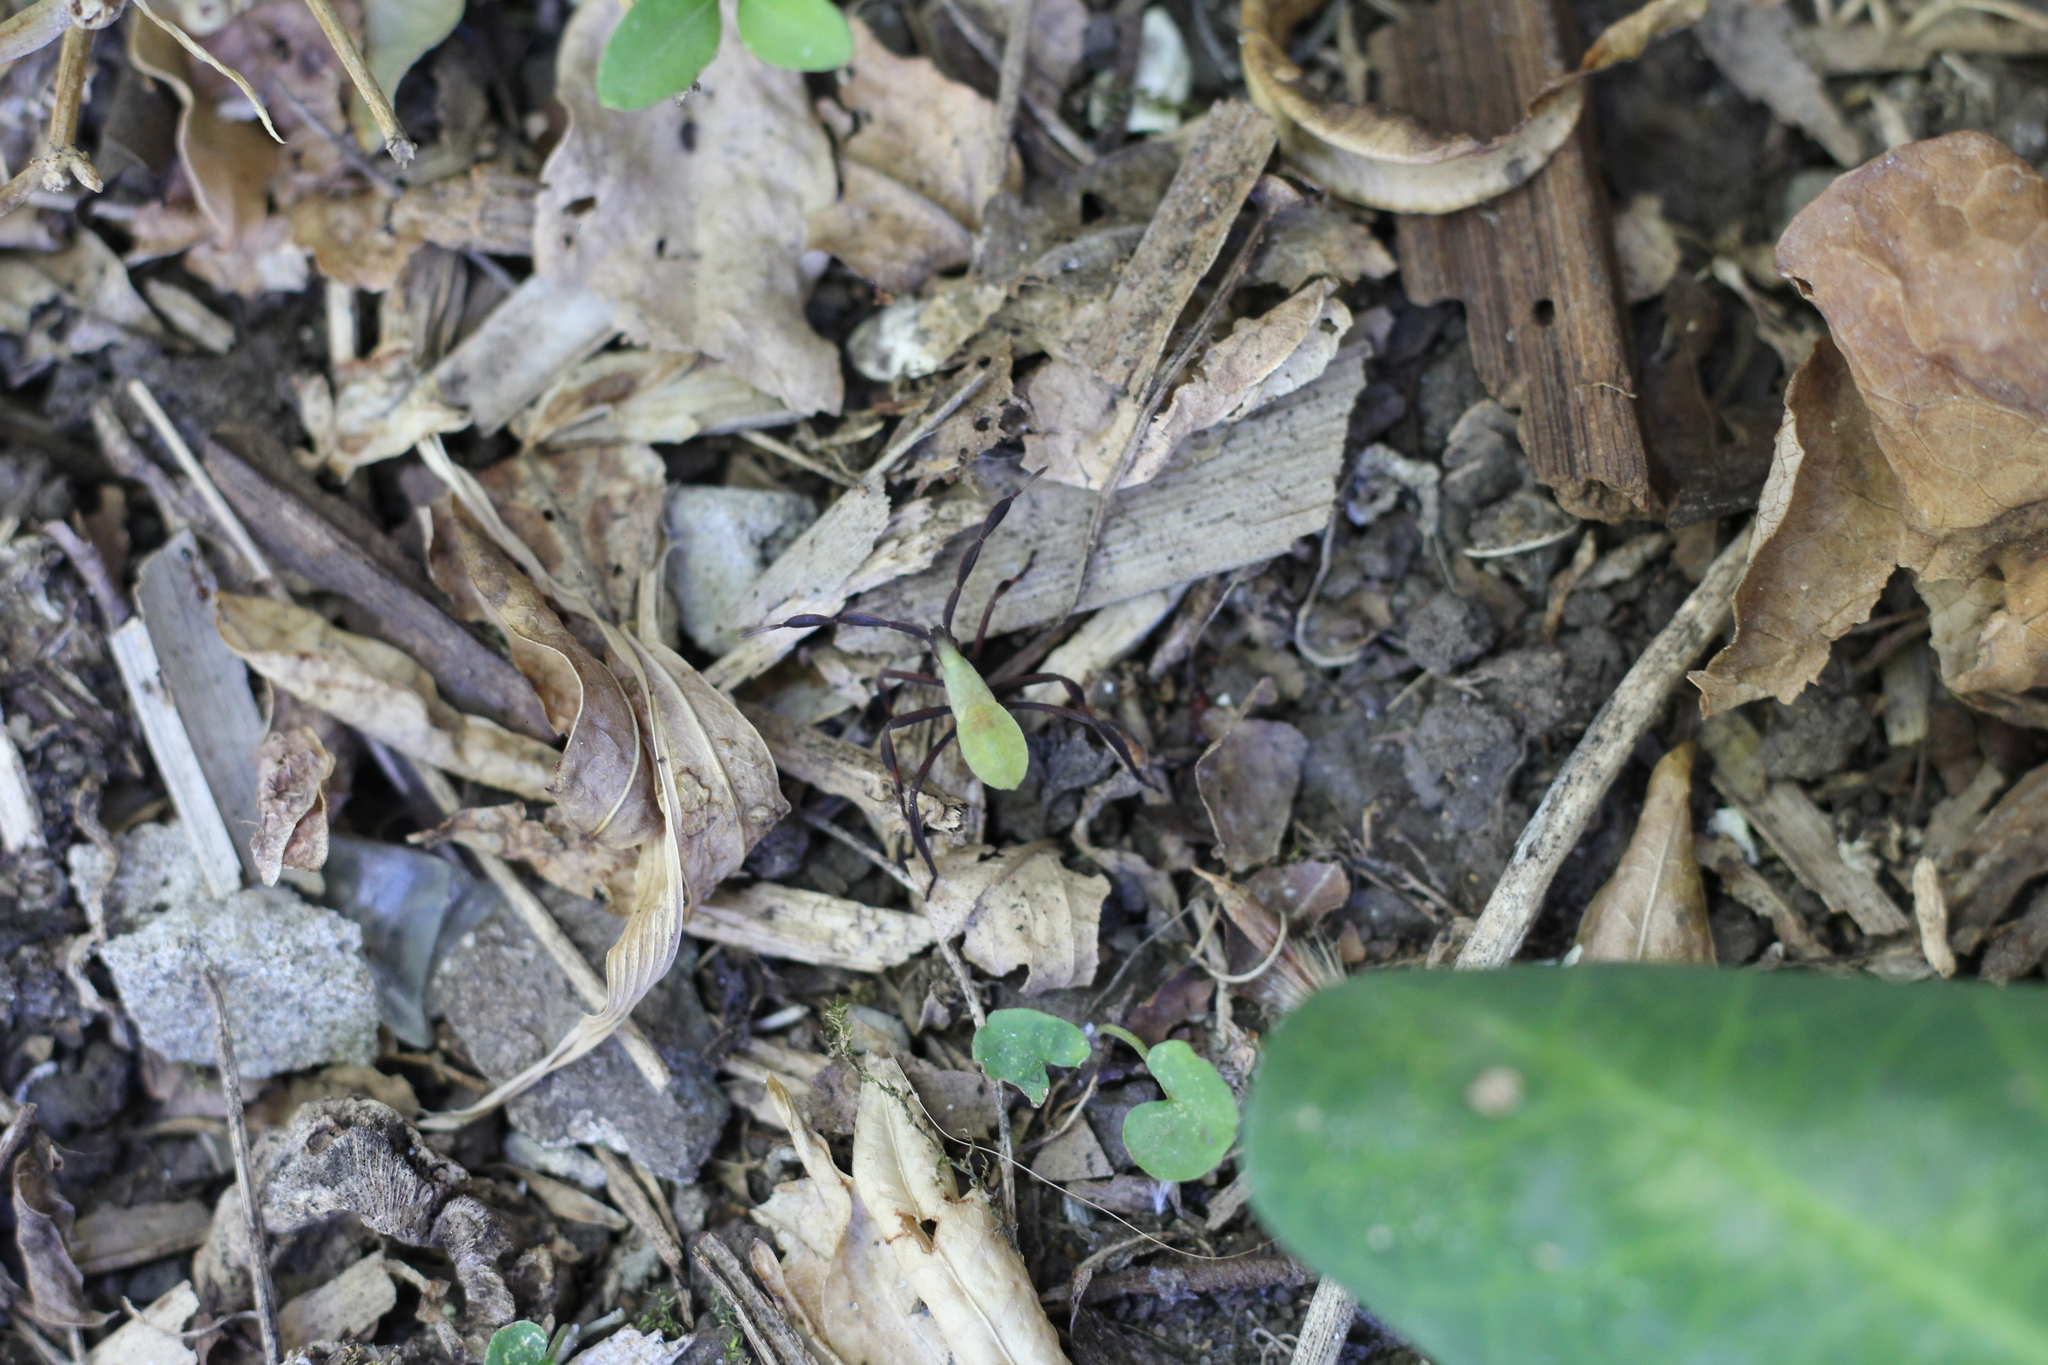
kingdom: Animalia
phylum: Arthropoda
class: Insecta
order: Hemiptera
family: Coreidae
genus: Holhymenia
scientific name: Holhymenia histrio
